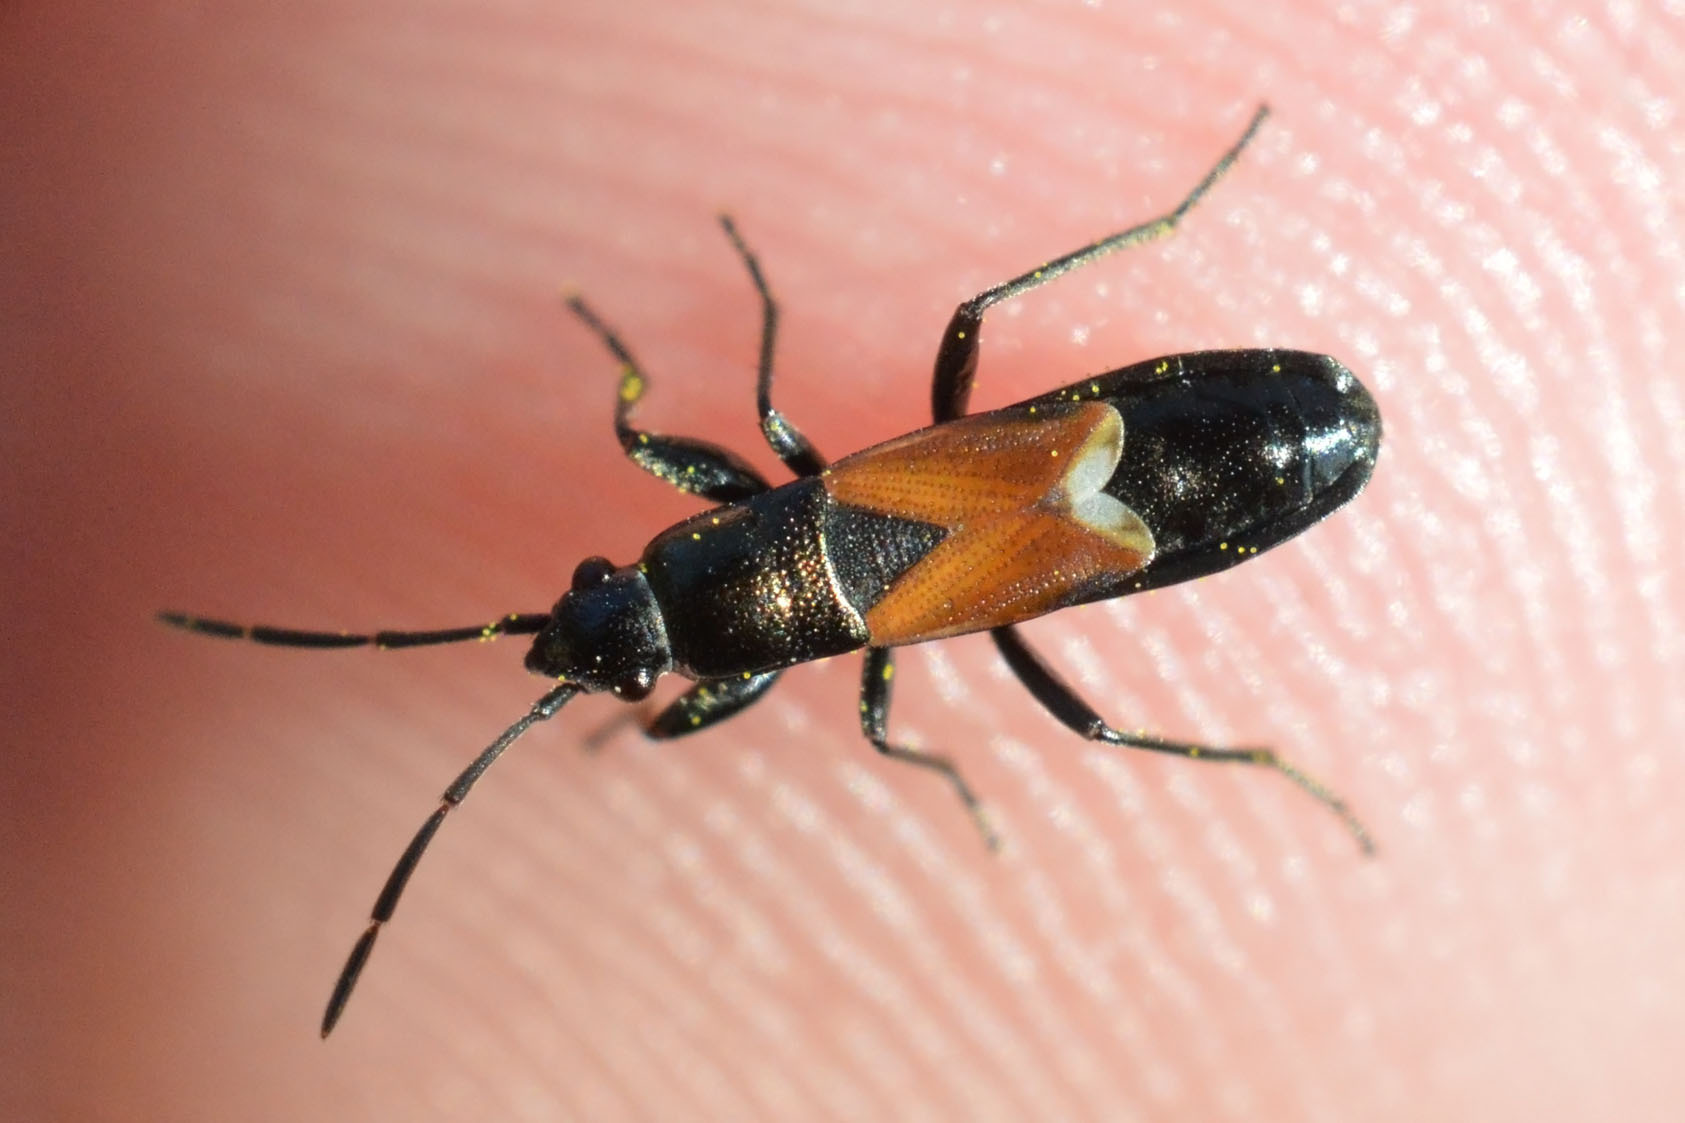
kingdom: Animalia
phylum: Arthropoda
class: Insecta
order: Hemiptera
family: Rhyparochromidae
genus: Pterotmetus
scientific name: Pterotmetus staphyliniformis
